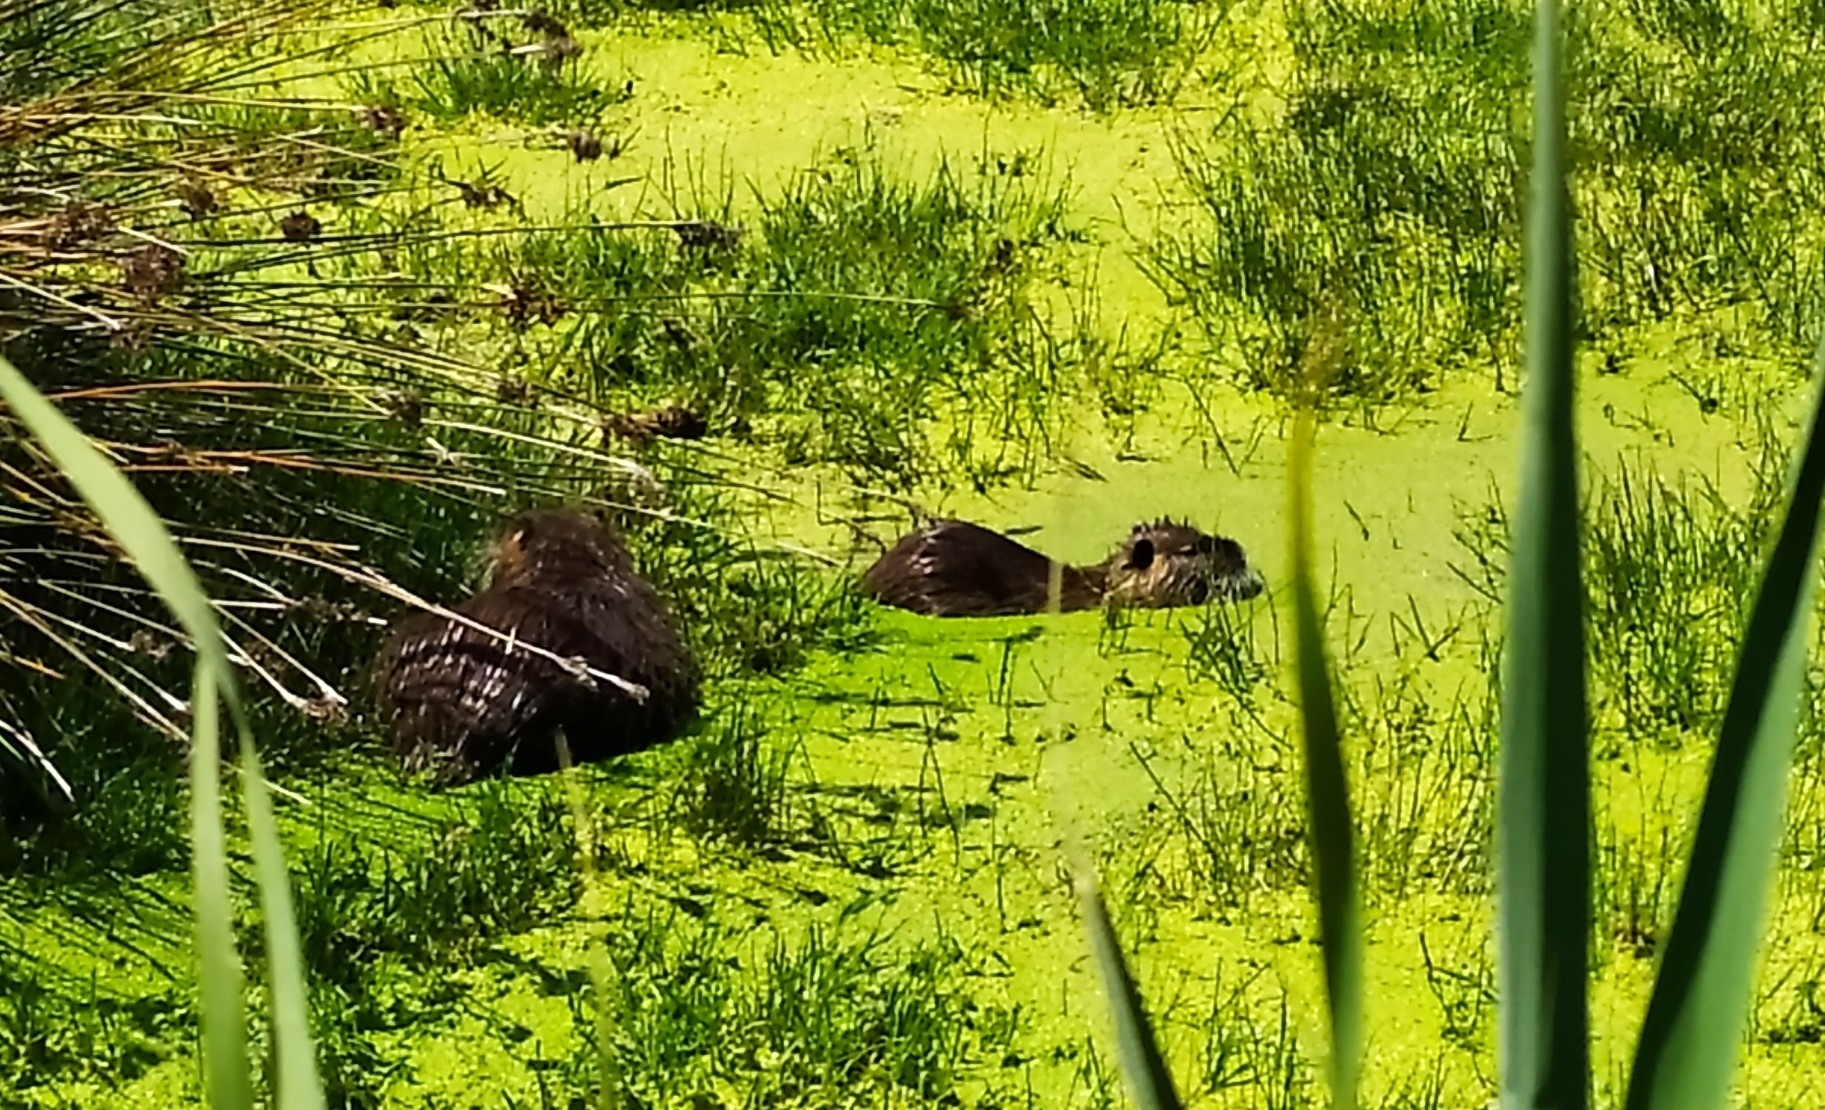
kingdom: Animalia
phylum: Chordata
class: Mammalia
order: Rodentia
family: Myocastoridae
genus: Myocastor
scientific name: Myocastor coypus
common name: Coypu
